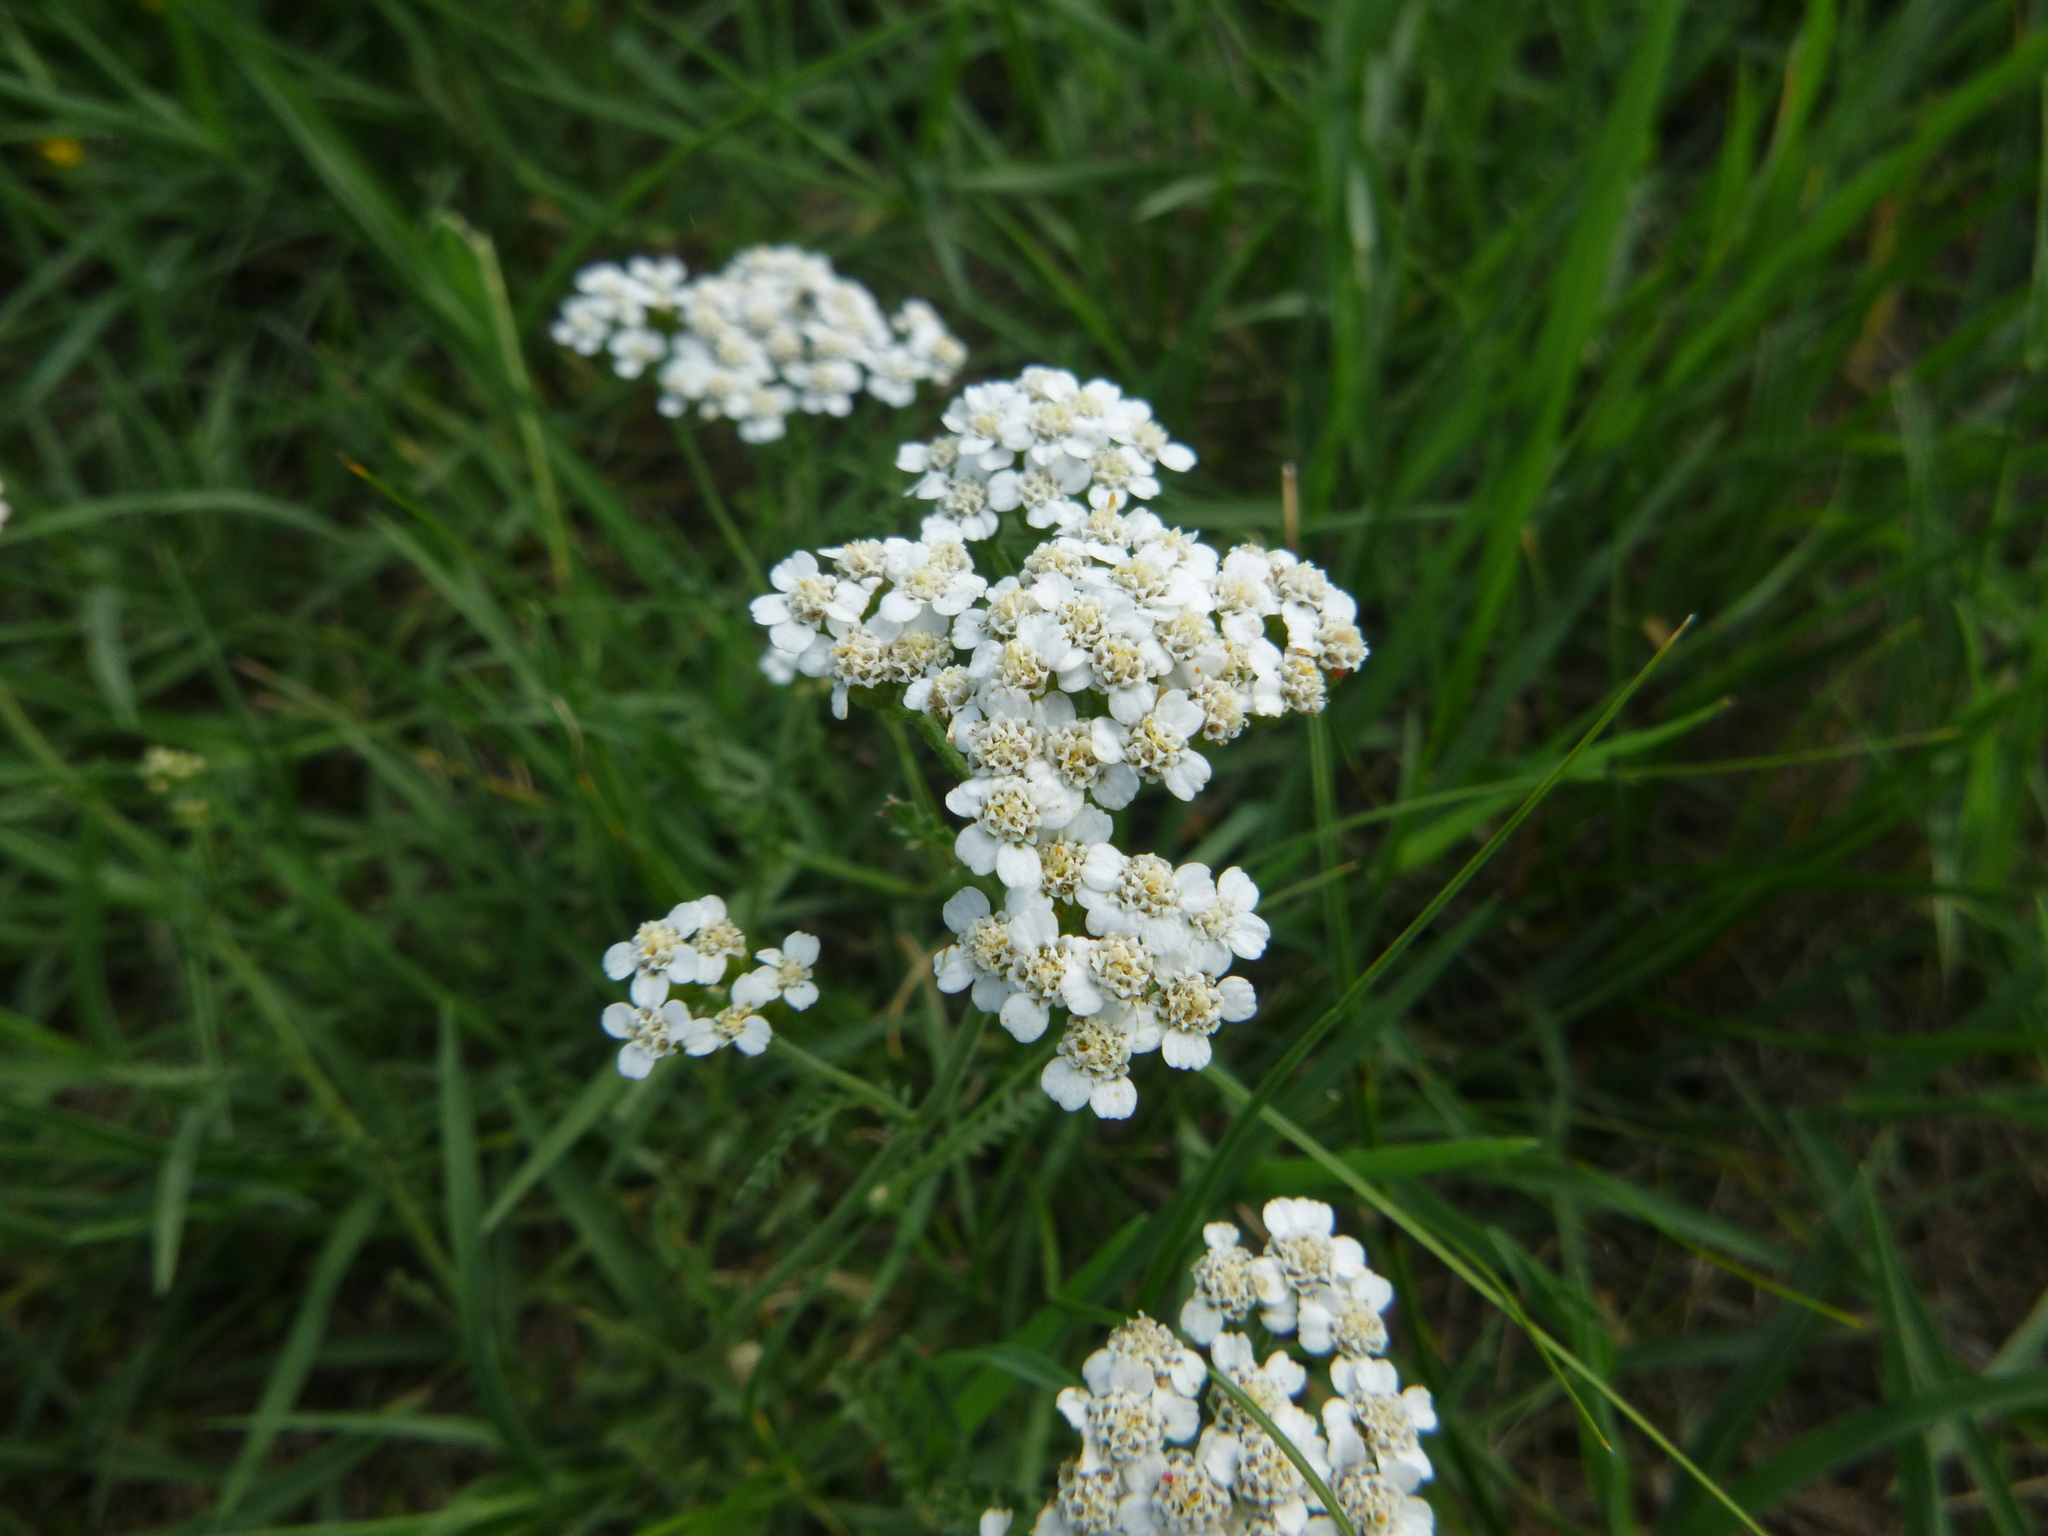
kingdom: Plantae
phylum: Tracheophyta
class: Magnoliopsida
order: Asterales
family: Asteraceae
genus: Achillea
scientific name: Achillea millefolium
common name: Yarrow
